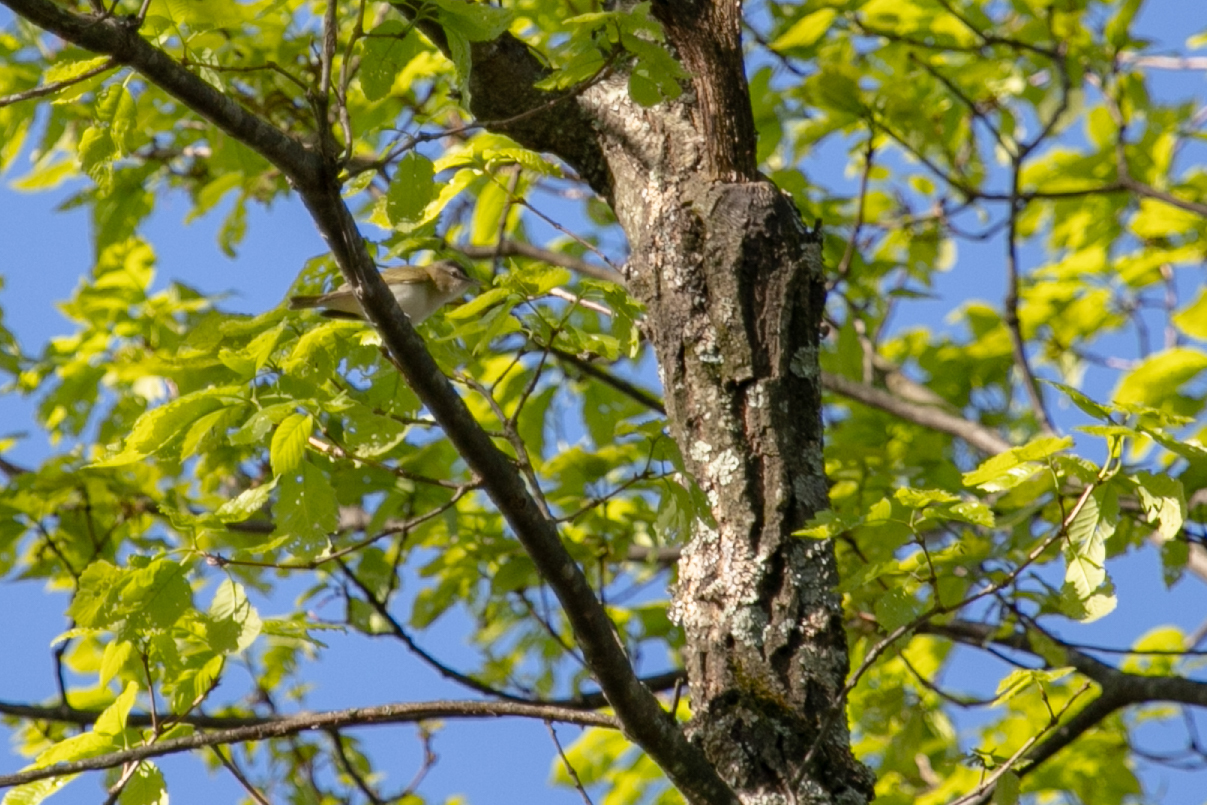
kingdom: Animalia
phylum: Chordata
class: Aves
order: Passeriformes
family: Vireonidae
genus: Vireo
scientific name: Vireo olivaceus
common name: Red-eyed vireo
